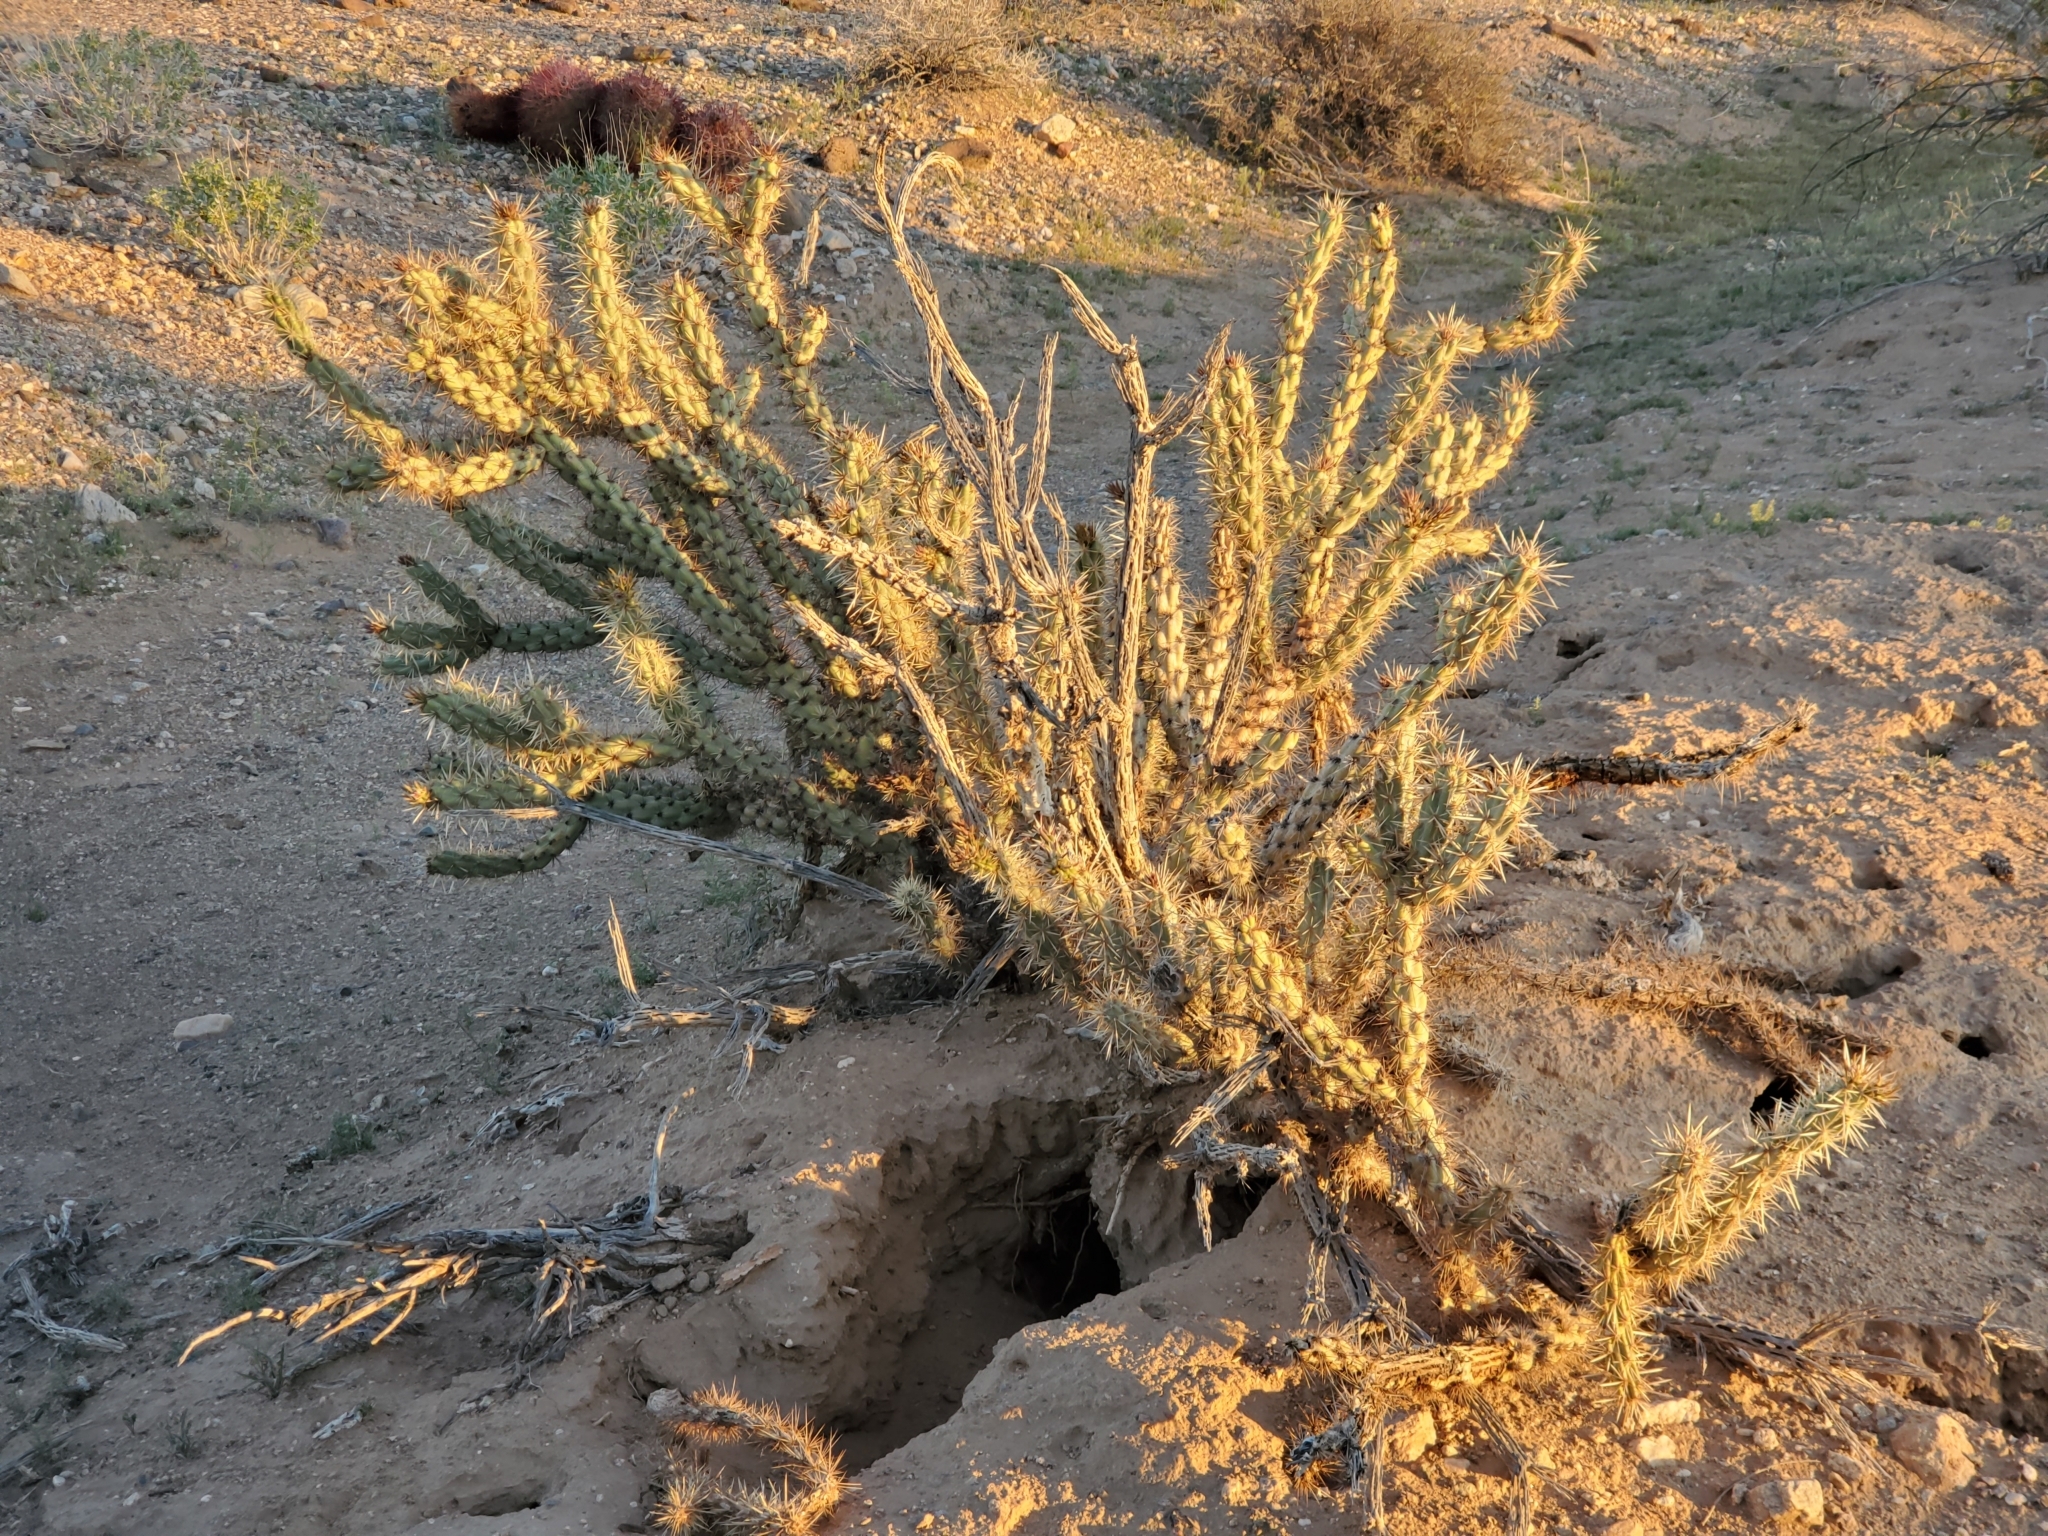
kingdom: Plantae
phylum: Tracheophyta
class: Magnoliopsida
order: Caryophyllales
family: Cactaceae
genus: Cylindropuntia
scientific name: Cylindropuntia acanthocarpa
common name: Buckhorn cholla
